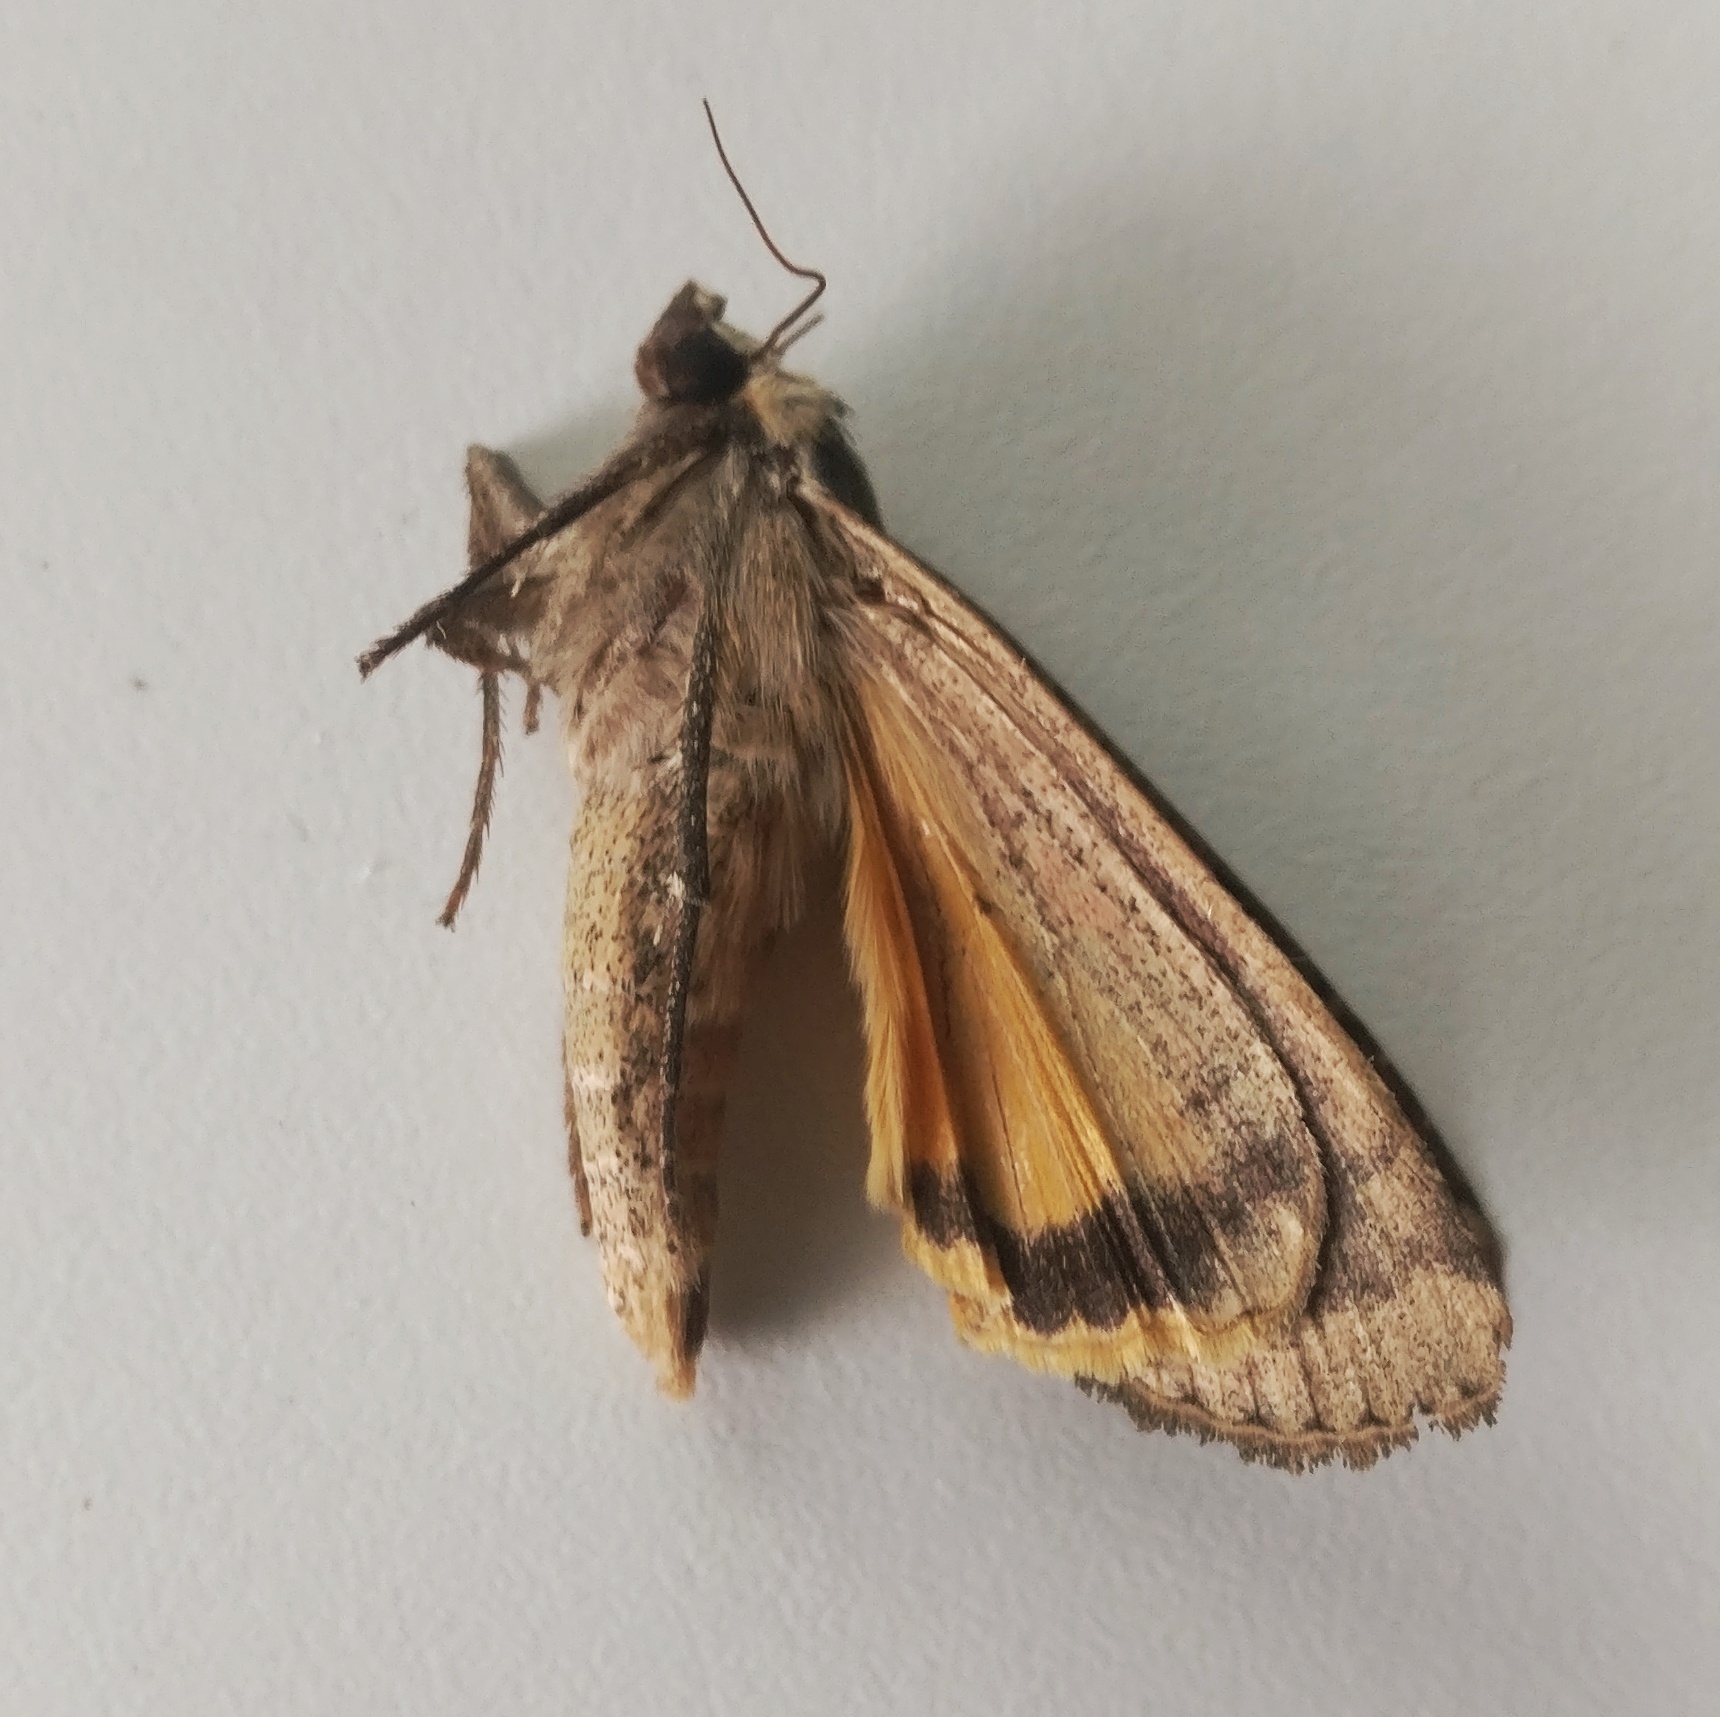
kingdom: Animalia
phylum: Arthropoda
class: Insecta
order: Lepidoptera
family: Noctuidae
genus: Noctua
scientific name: Noctua pronuba
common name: Large yellow underwing
